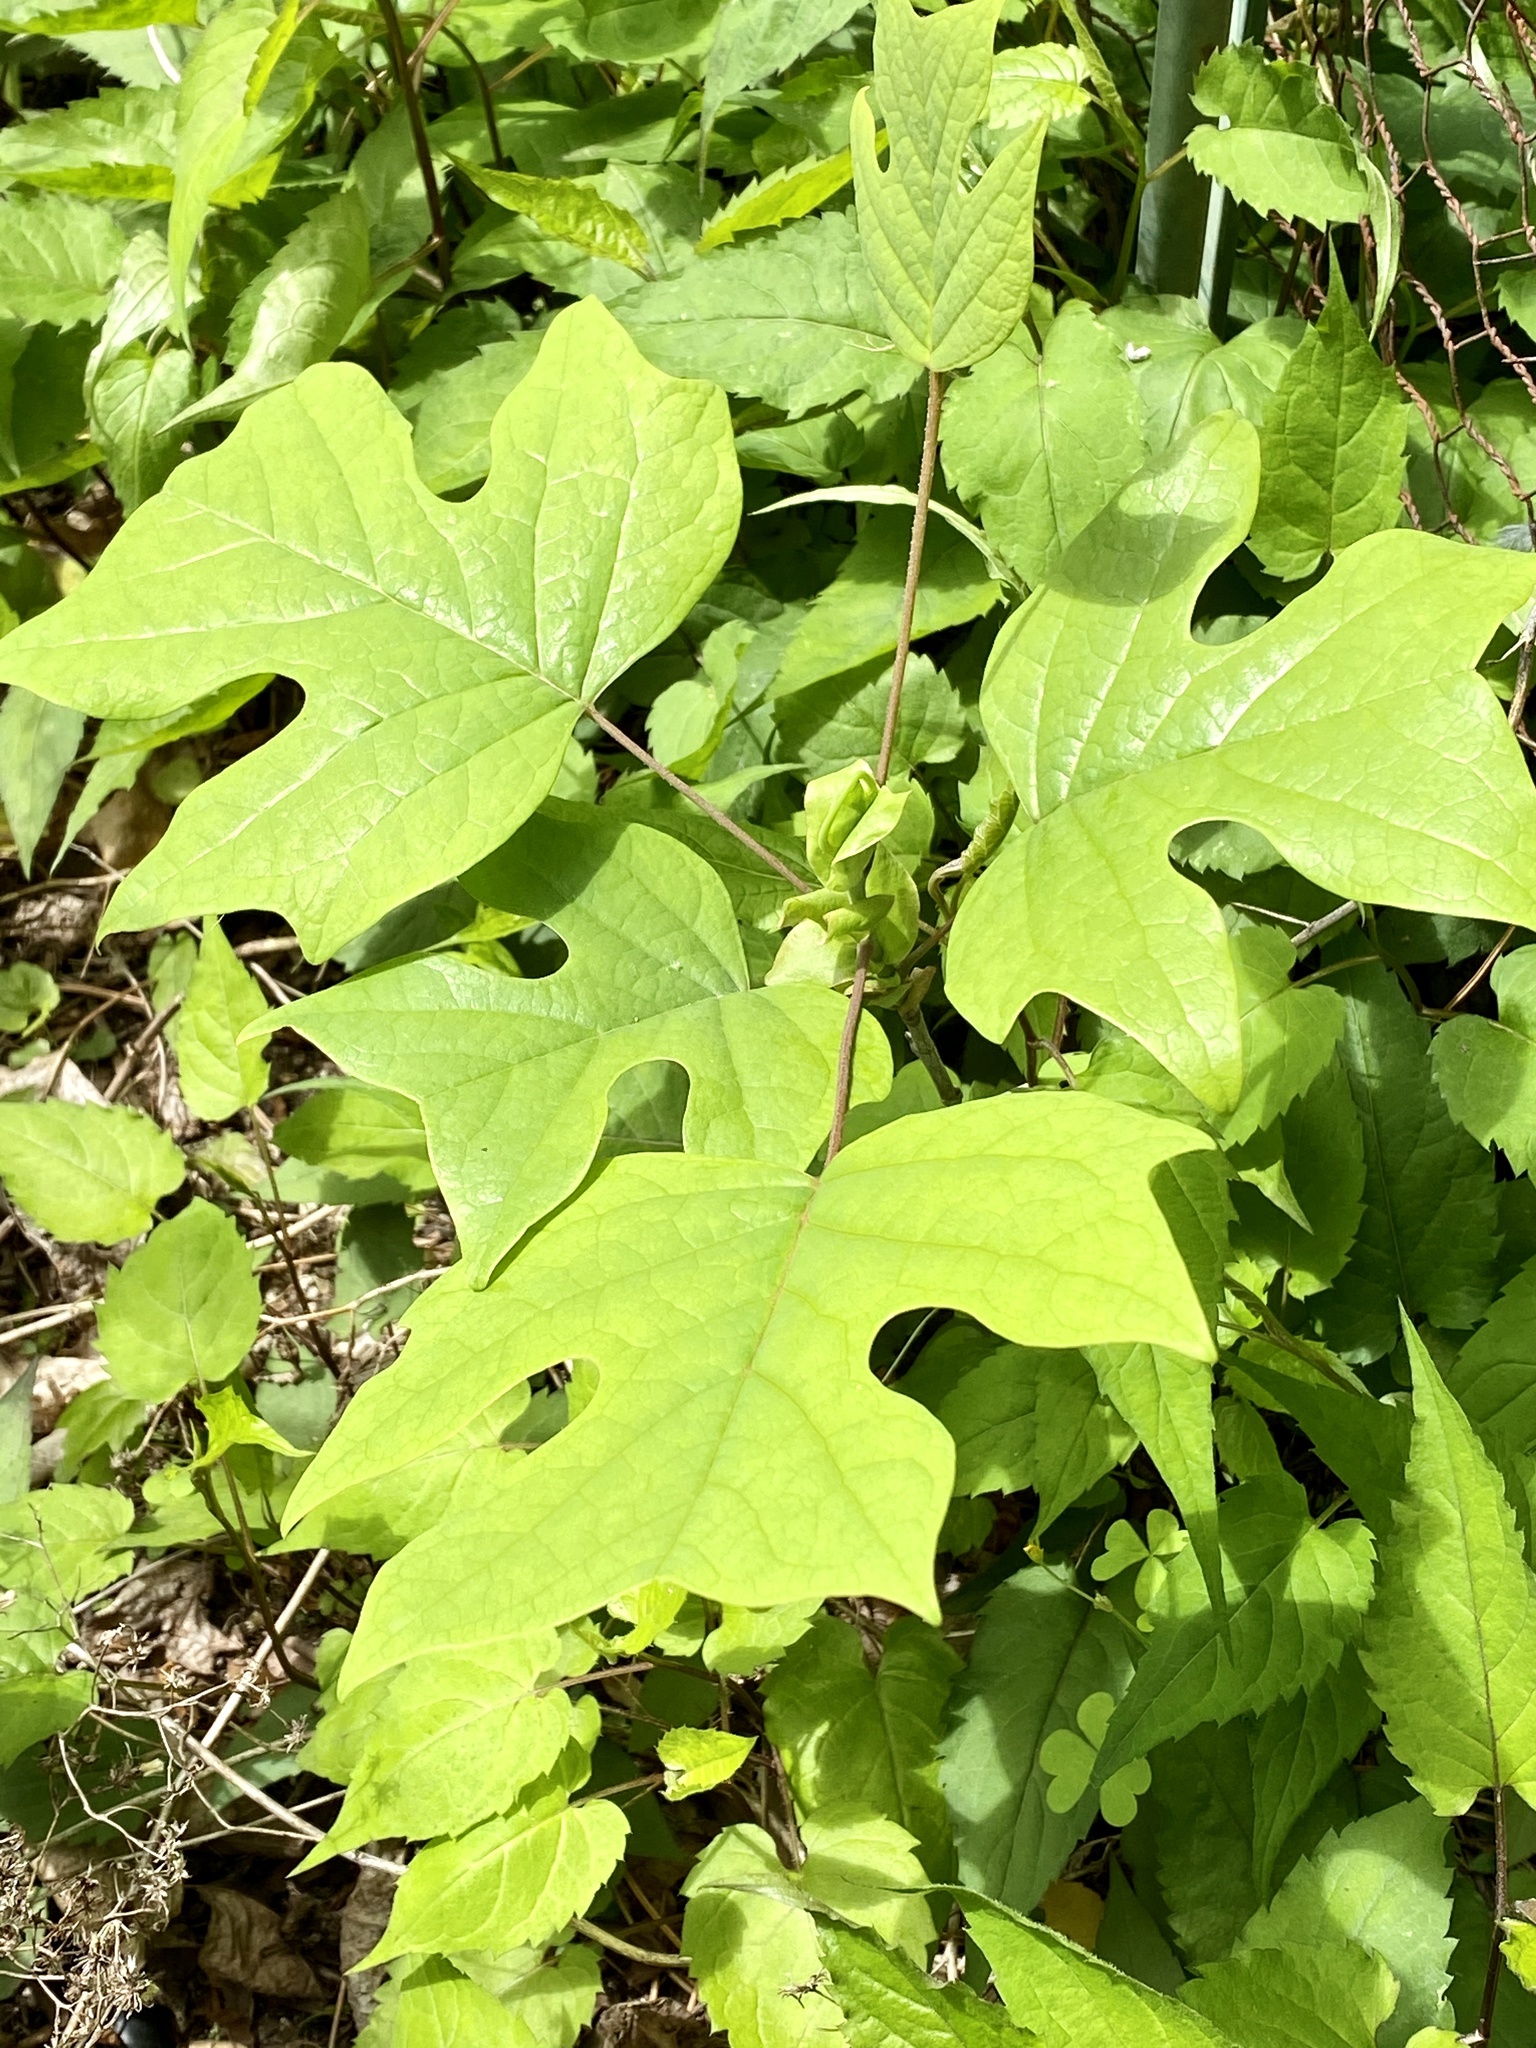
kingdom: Plantae
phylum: Tracheophyta
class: Magnoliopsida
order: Magnoliales
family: Magnoliaceae
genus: Liriodendron
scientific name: Liriodendron tulipifera
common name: Tulip tree
